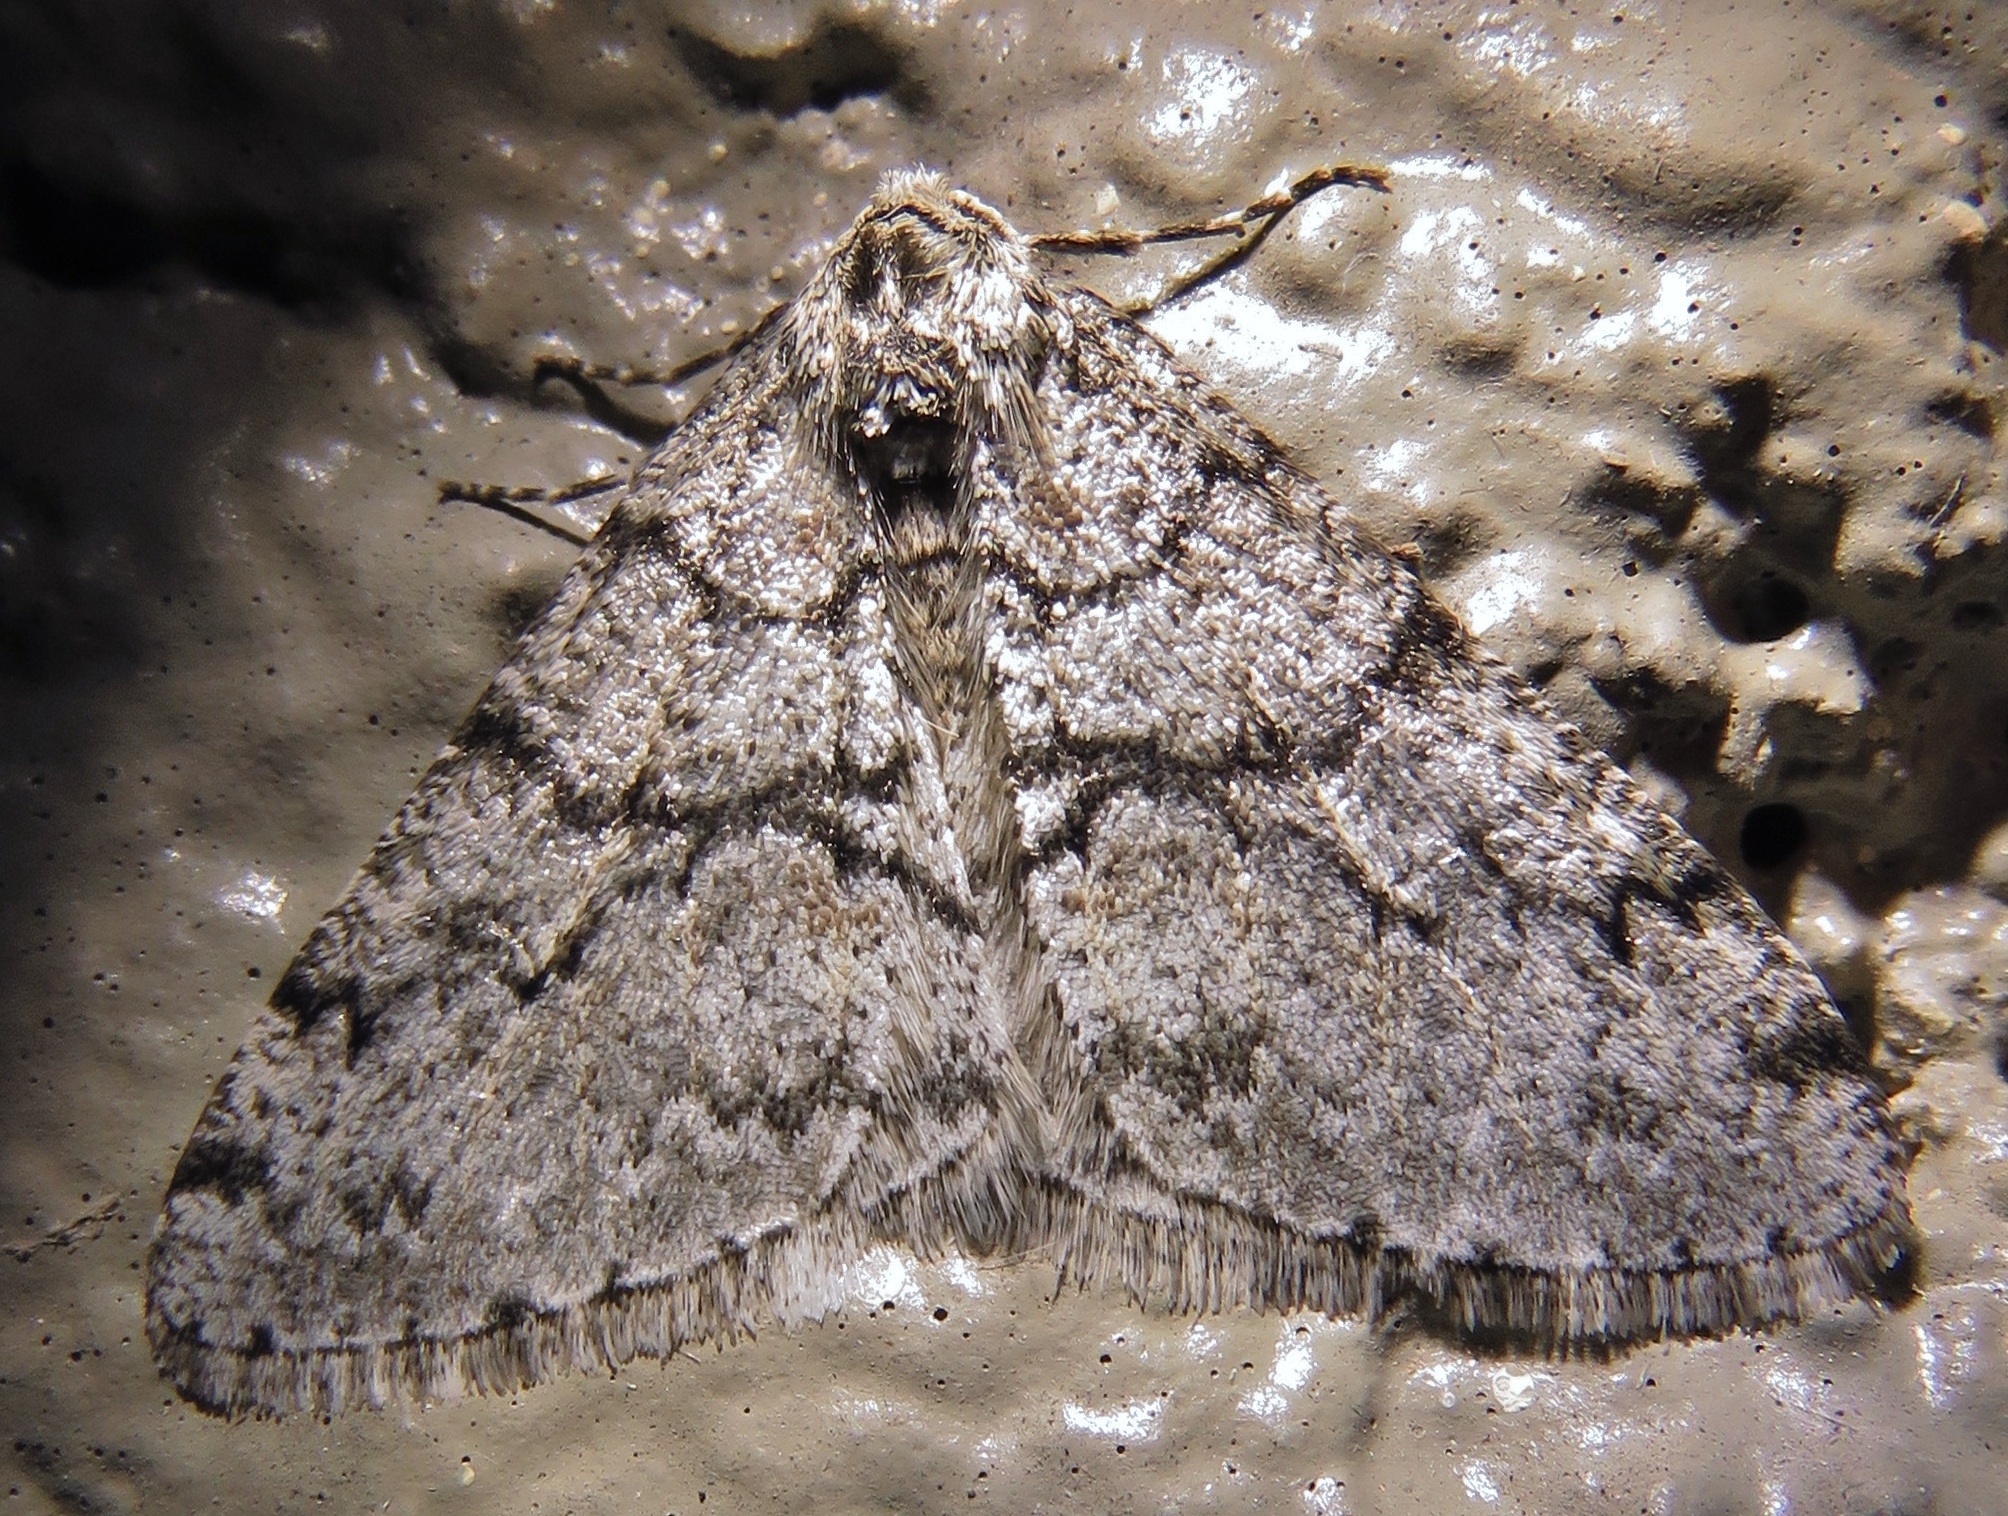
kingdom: Animalia
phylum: Arthropoda
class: Insecta
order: Lepidoptera
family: Geometridae
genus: Phigalia
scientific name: Phigalia denticulata
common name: Toothed phigalia
